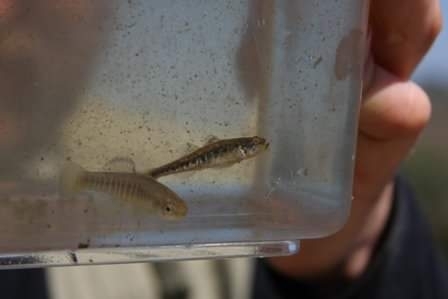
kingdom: Animalia
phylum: Chordata
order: Cyprinodontiformes
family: Cyprinodontidae
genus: Aphanius
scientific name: Aphanius fasciatus
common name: Mediterranean banded killifish
